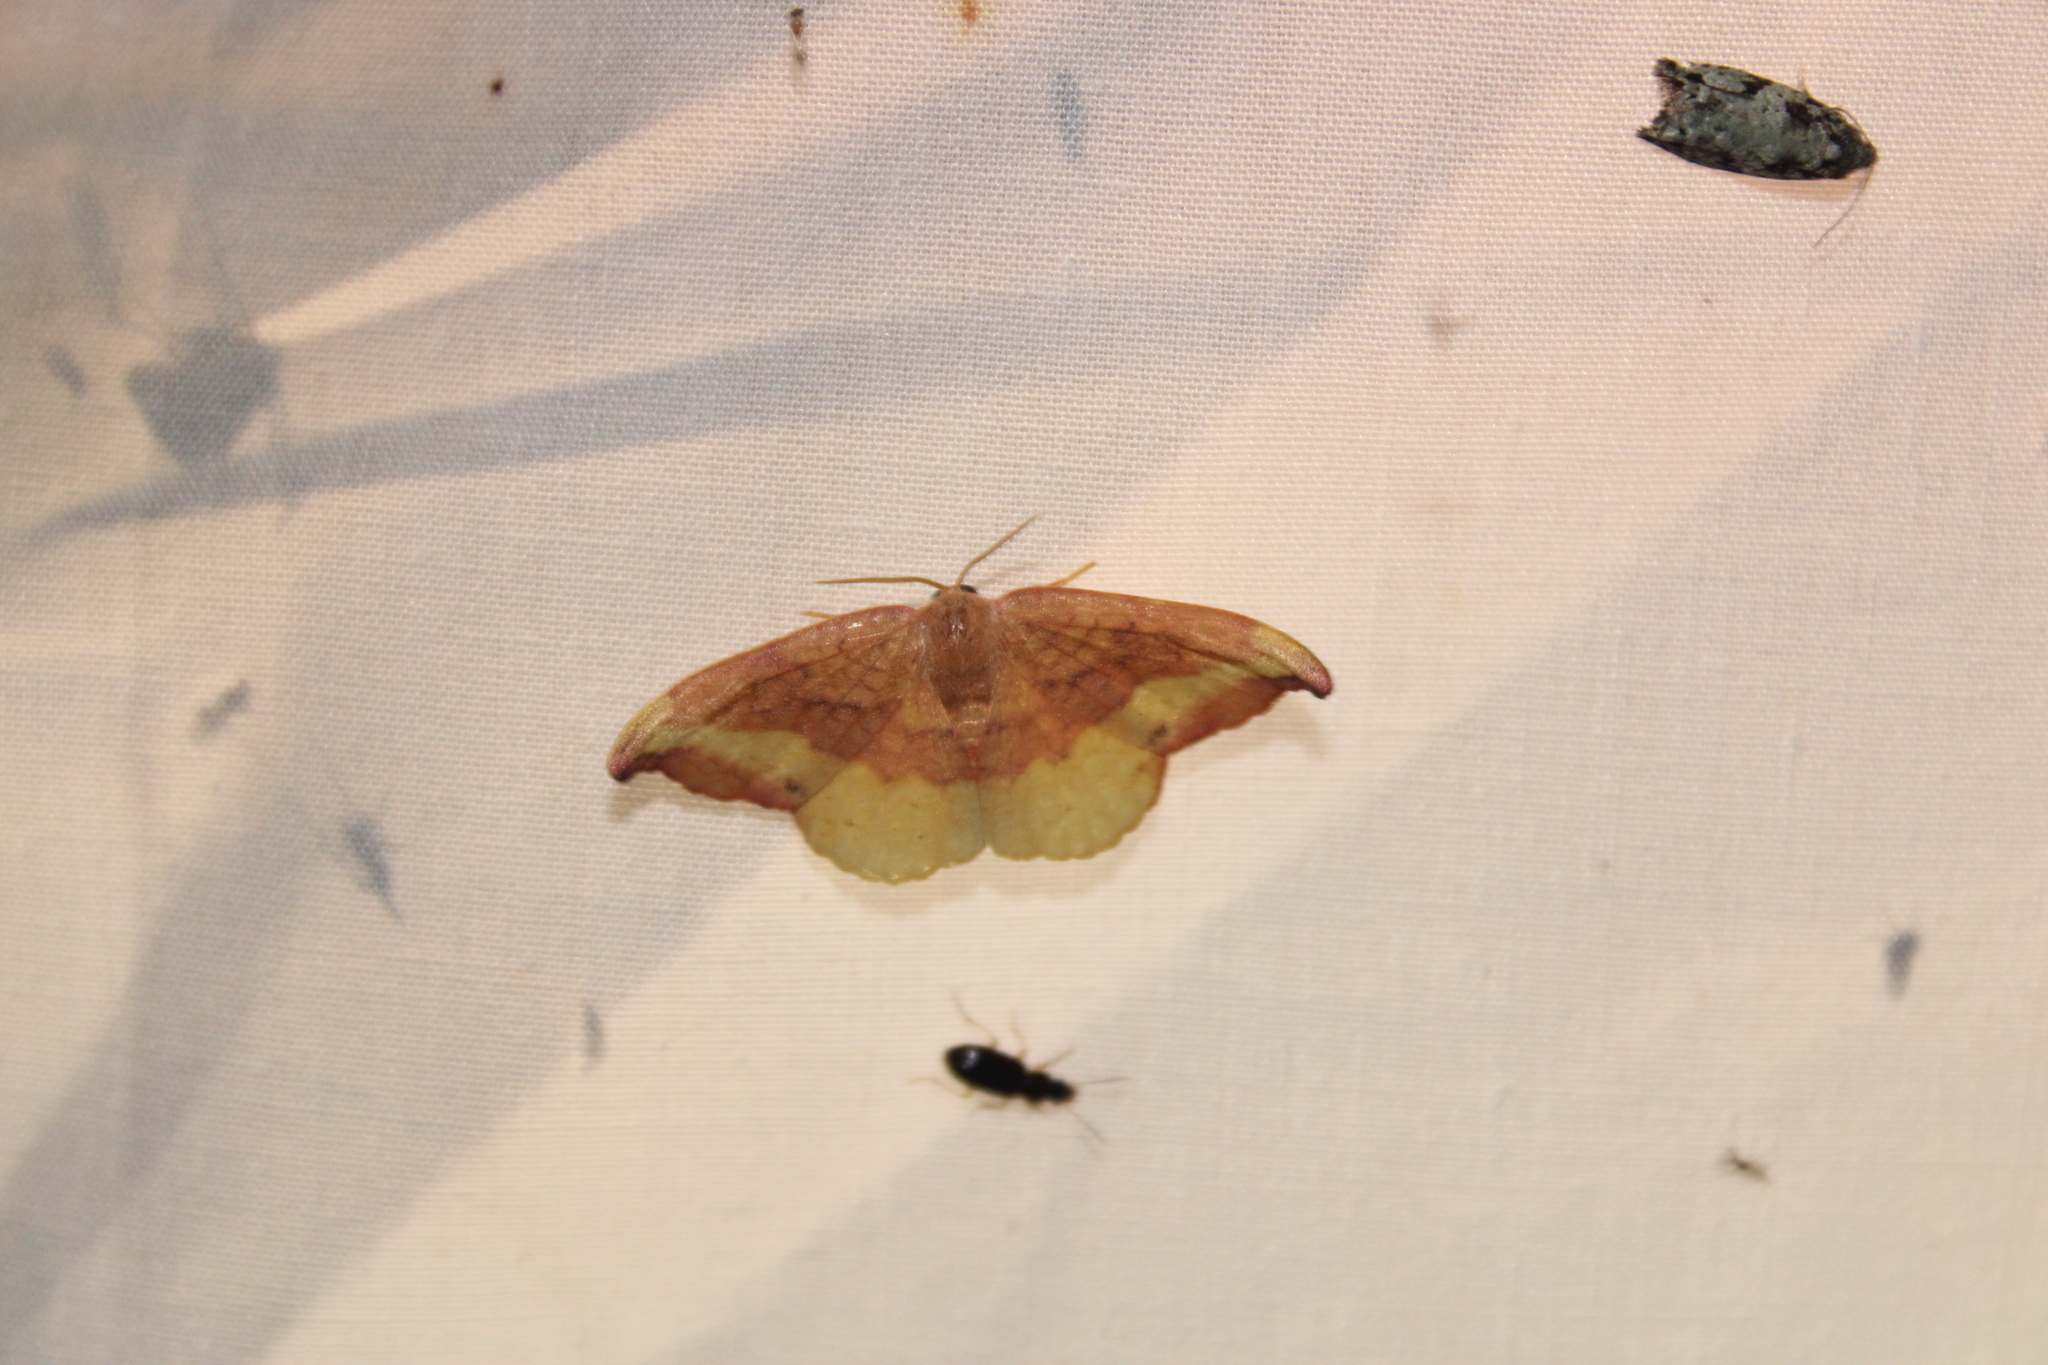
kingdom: Animalia
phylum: Arthropoda
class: Insecta
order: Lepidoptera
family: Drepanidae
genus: Oreta
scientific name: Oreta rosea
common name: Rose hooktip
